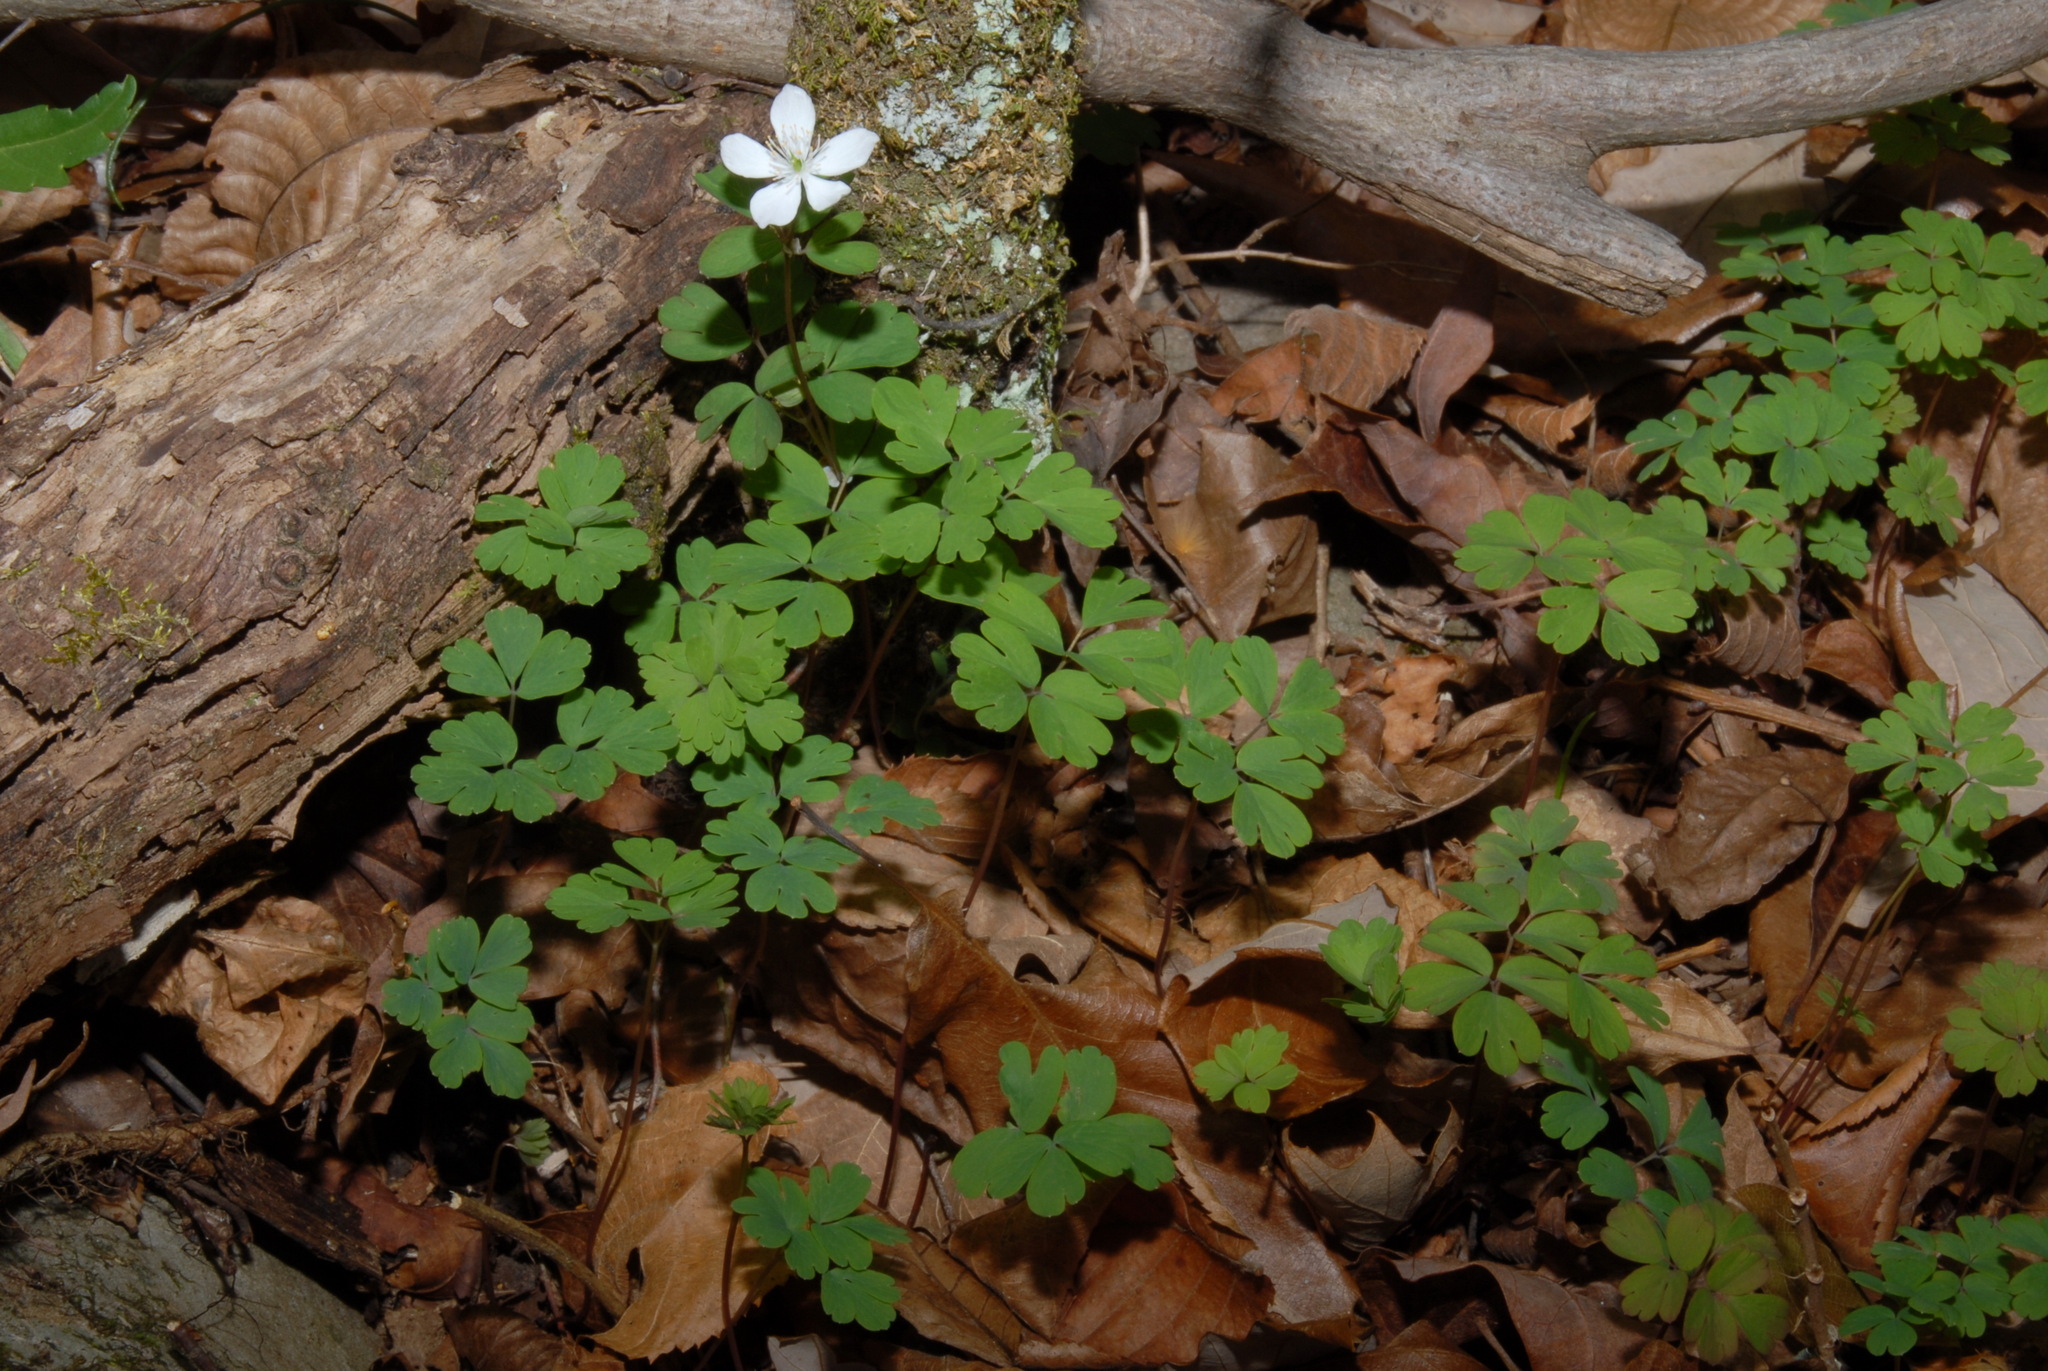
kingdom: Plantae
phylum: Tracheophyta
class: Magnoliopsida
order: Ranunculales
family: Ranunculaceae
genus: Enemion
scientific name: Enemion biternatum
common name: Eastern false rue-anemone
